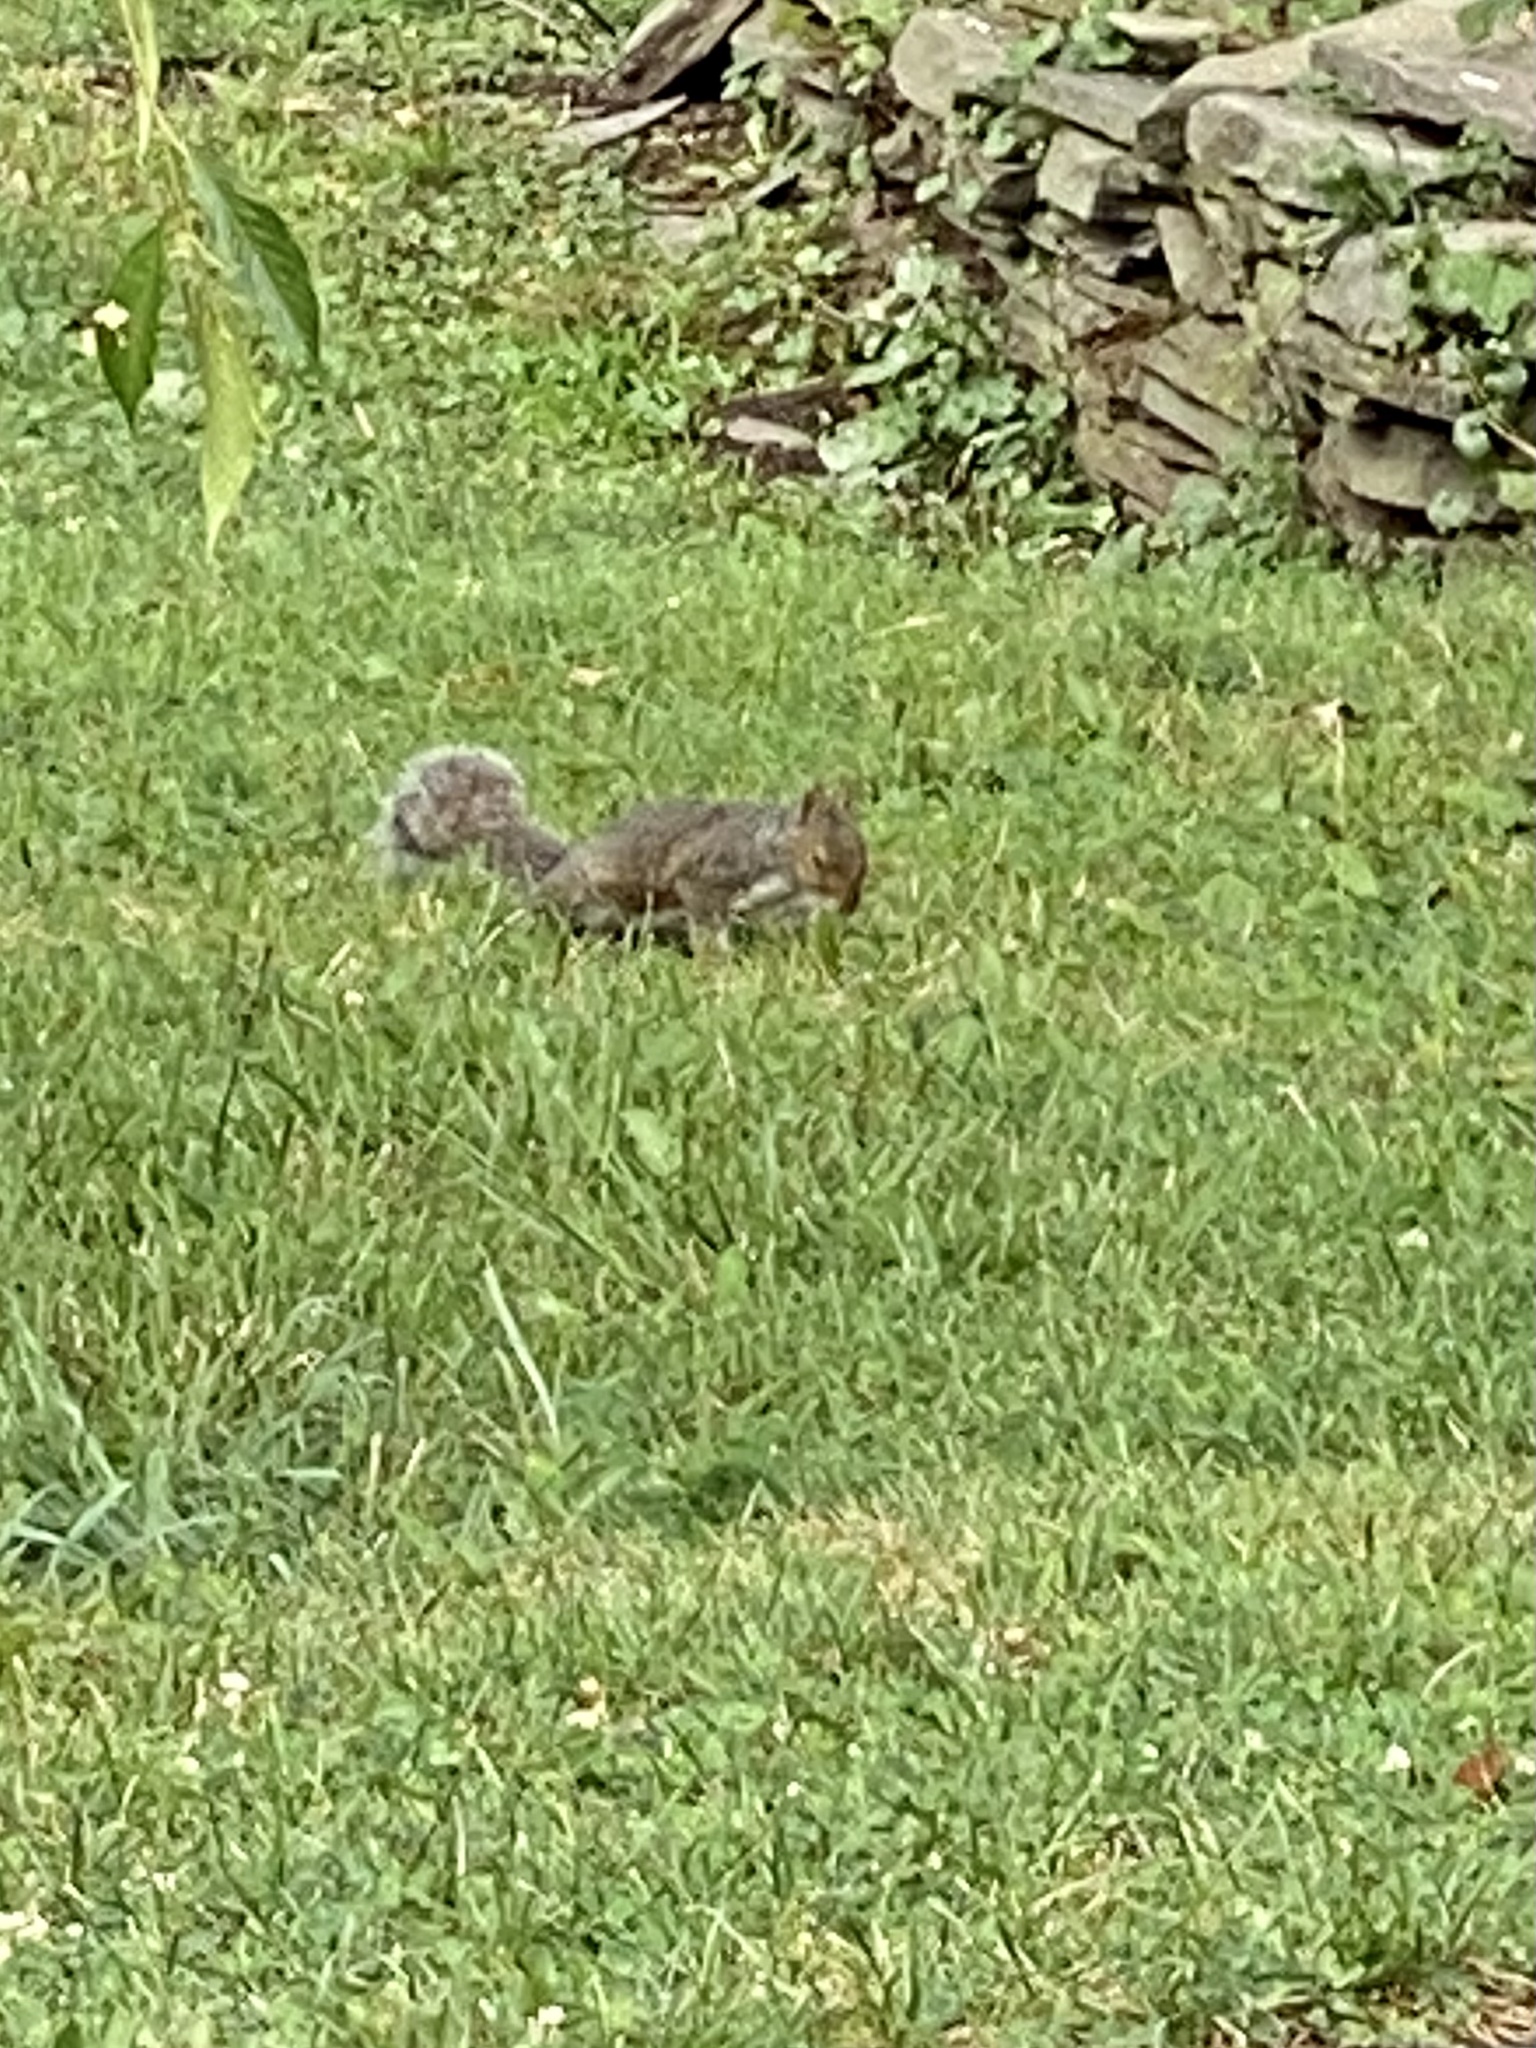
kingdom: Animalia
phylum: Chordata
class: Mammalia
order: Rodentia
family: Sciuridae
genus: Sciurus
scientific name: Sciurus carolinensis
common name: Eastern gray squirrel
